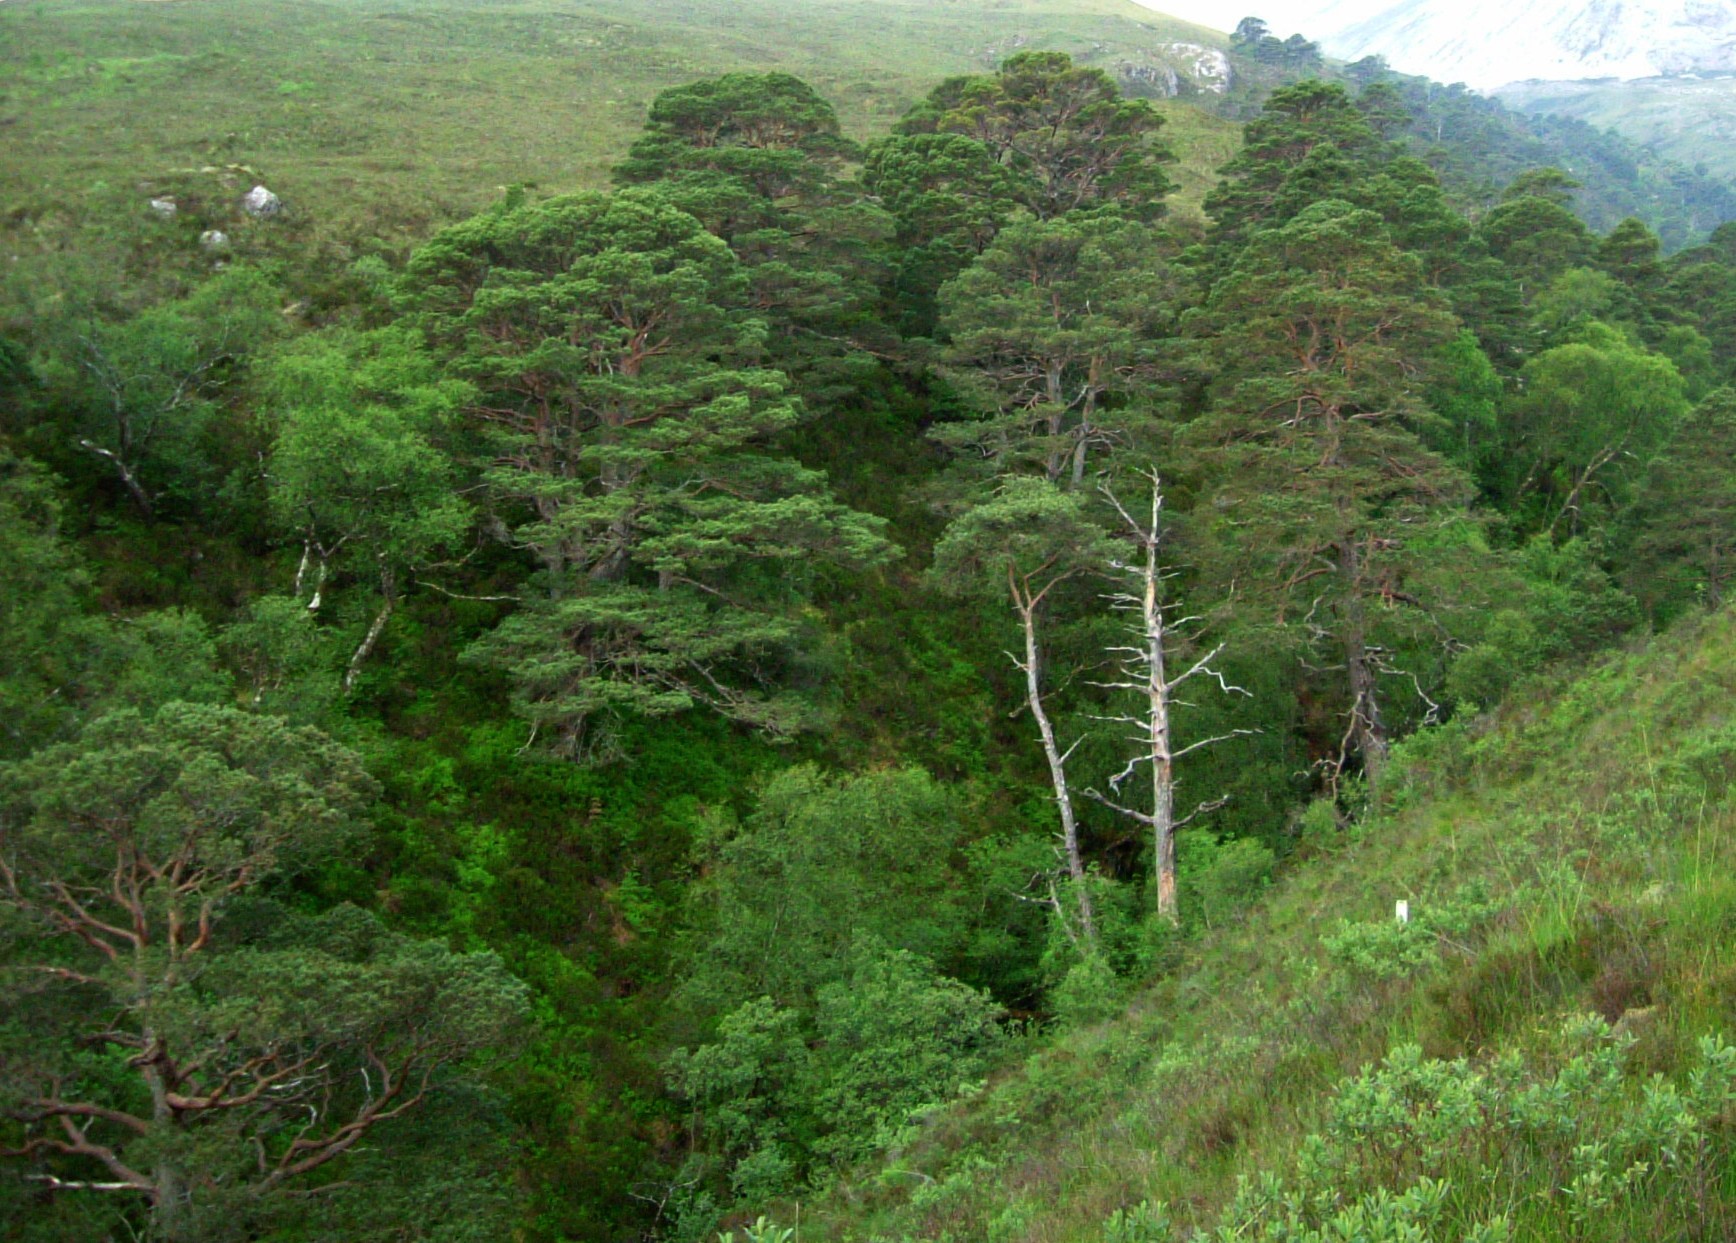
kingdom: Plantae
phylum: Tracheophyta
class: Pinopsida
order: Pinales
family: Pinaceae
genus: Pinus
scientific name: Pinus sylvestris
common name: Scots pine
